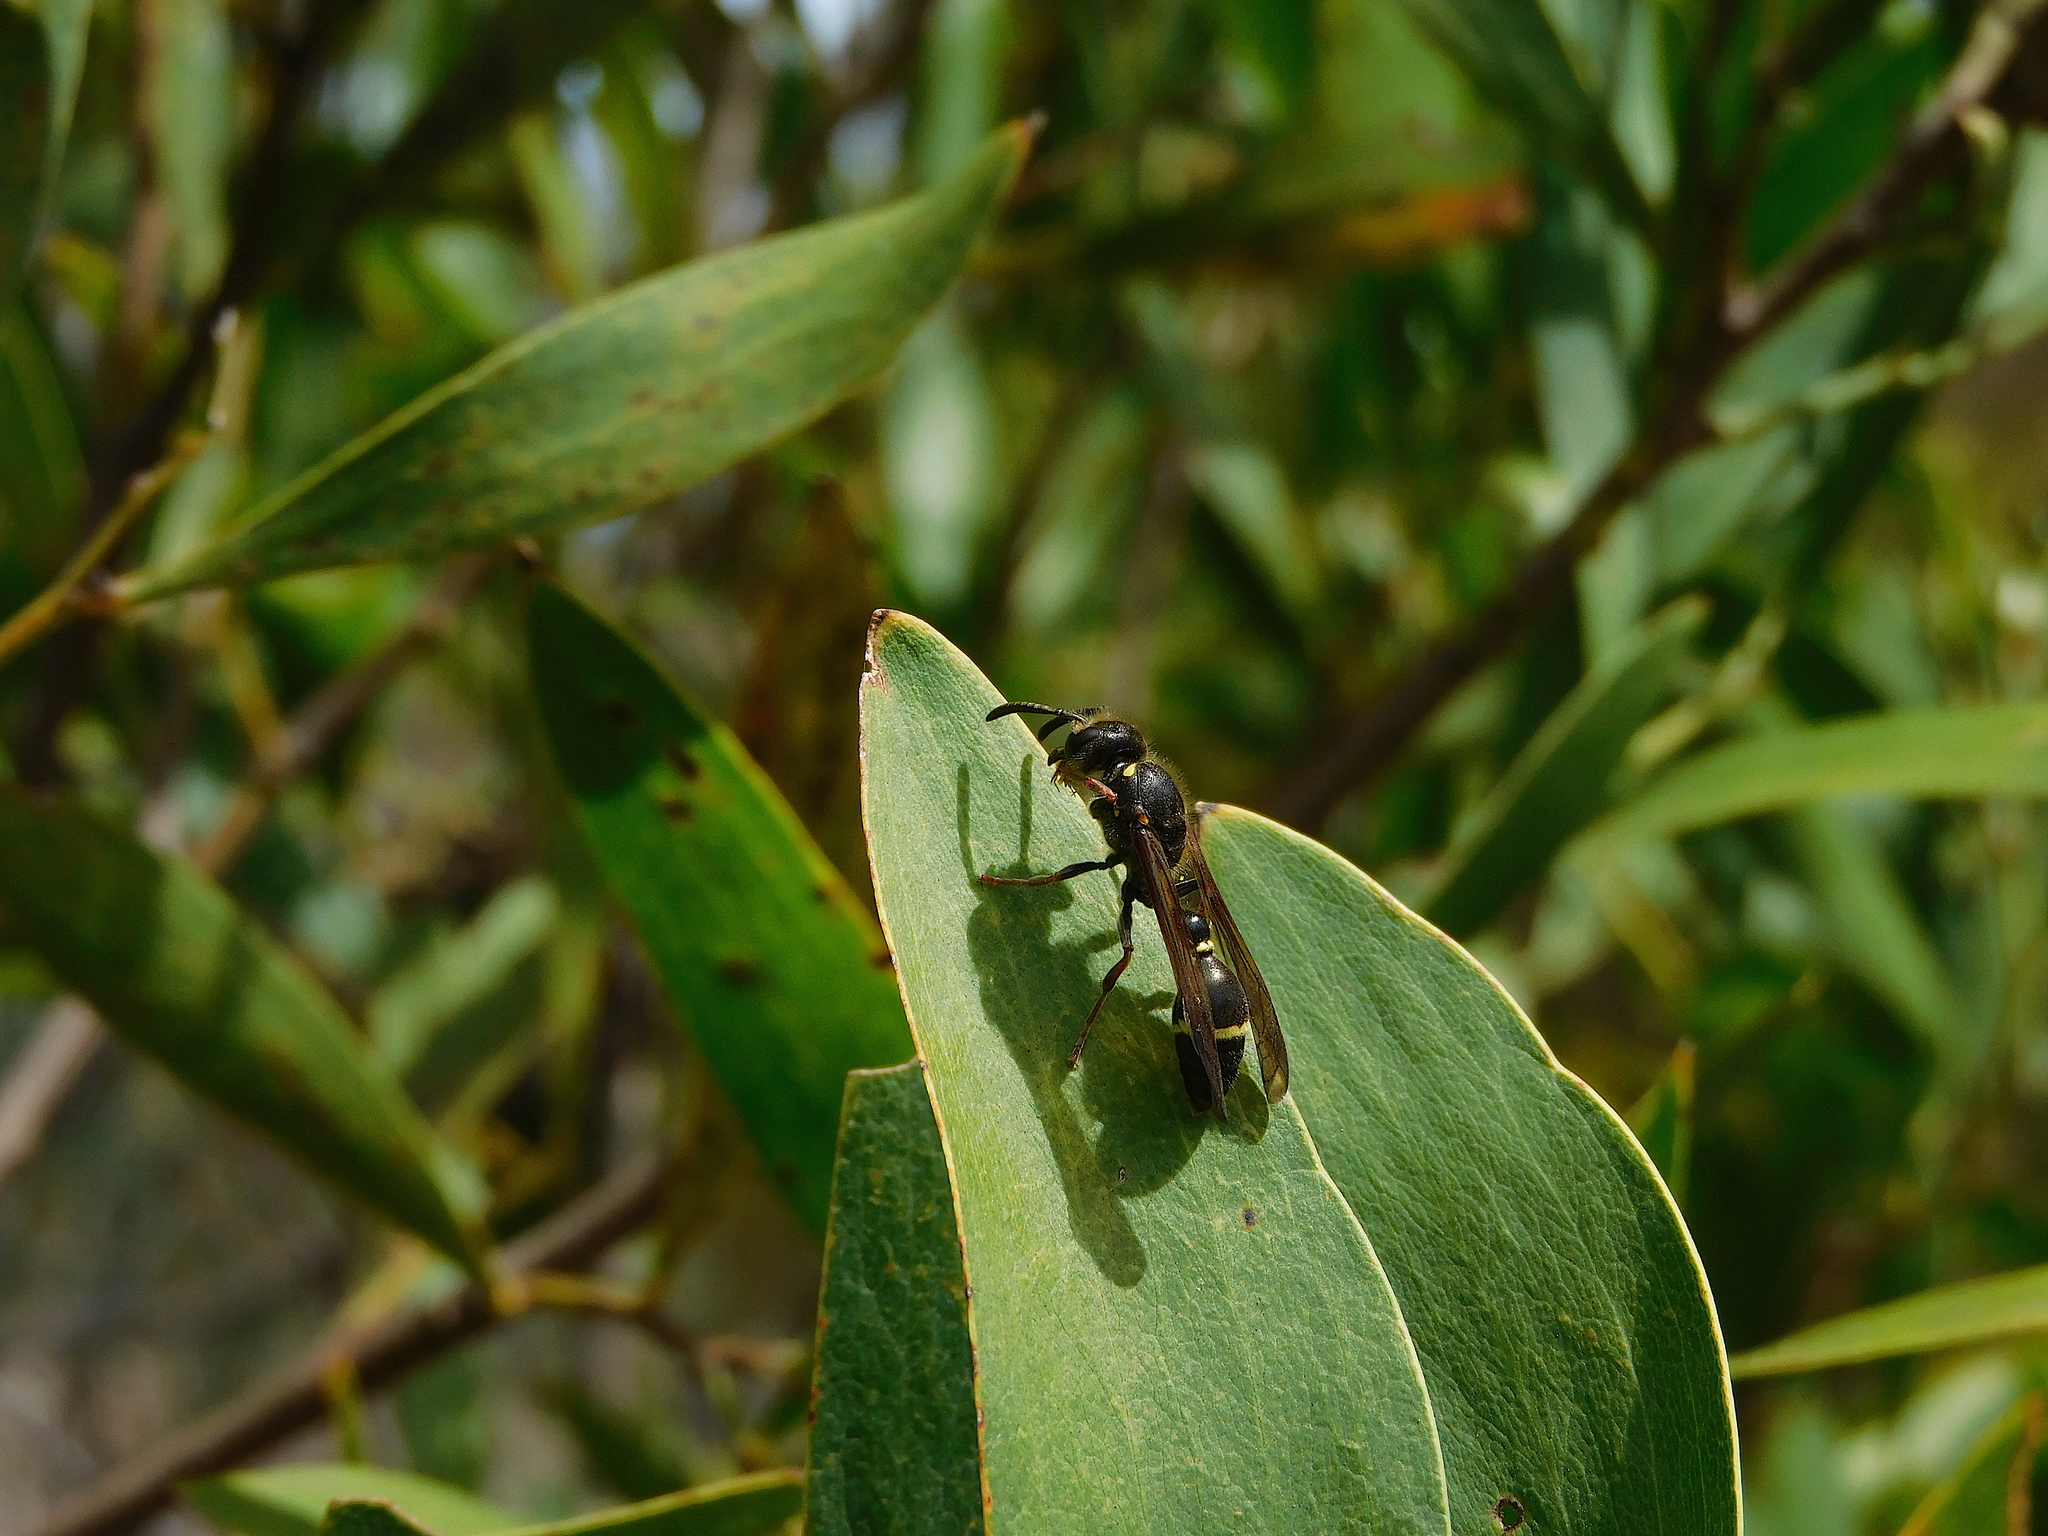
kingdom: Animalia
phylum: Arthropoda
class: Insecta
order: Hymenoptera
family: Eumenidae
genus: Australozethus
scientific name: Australozethus tasmaniensis
